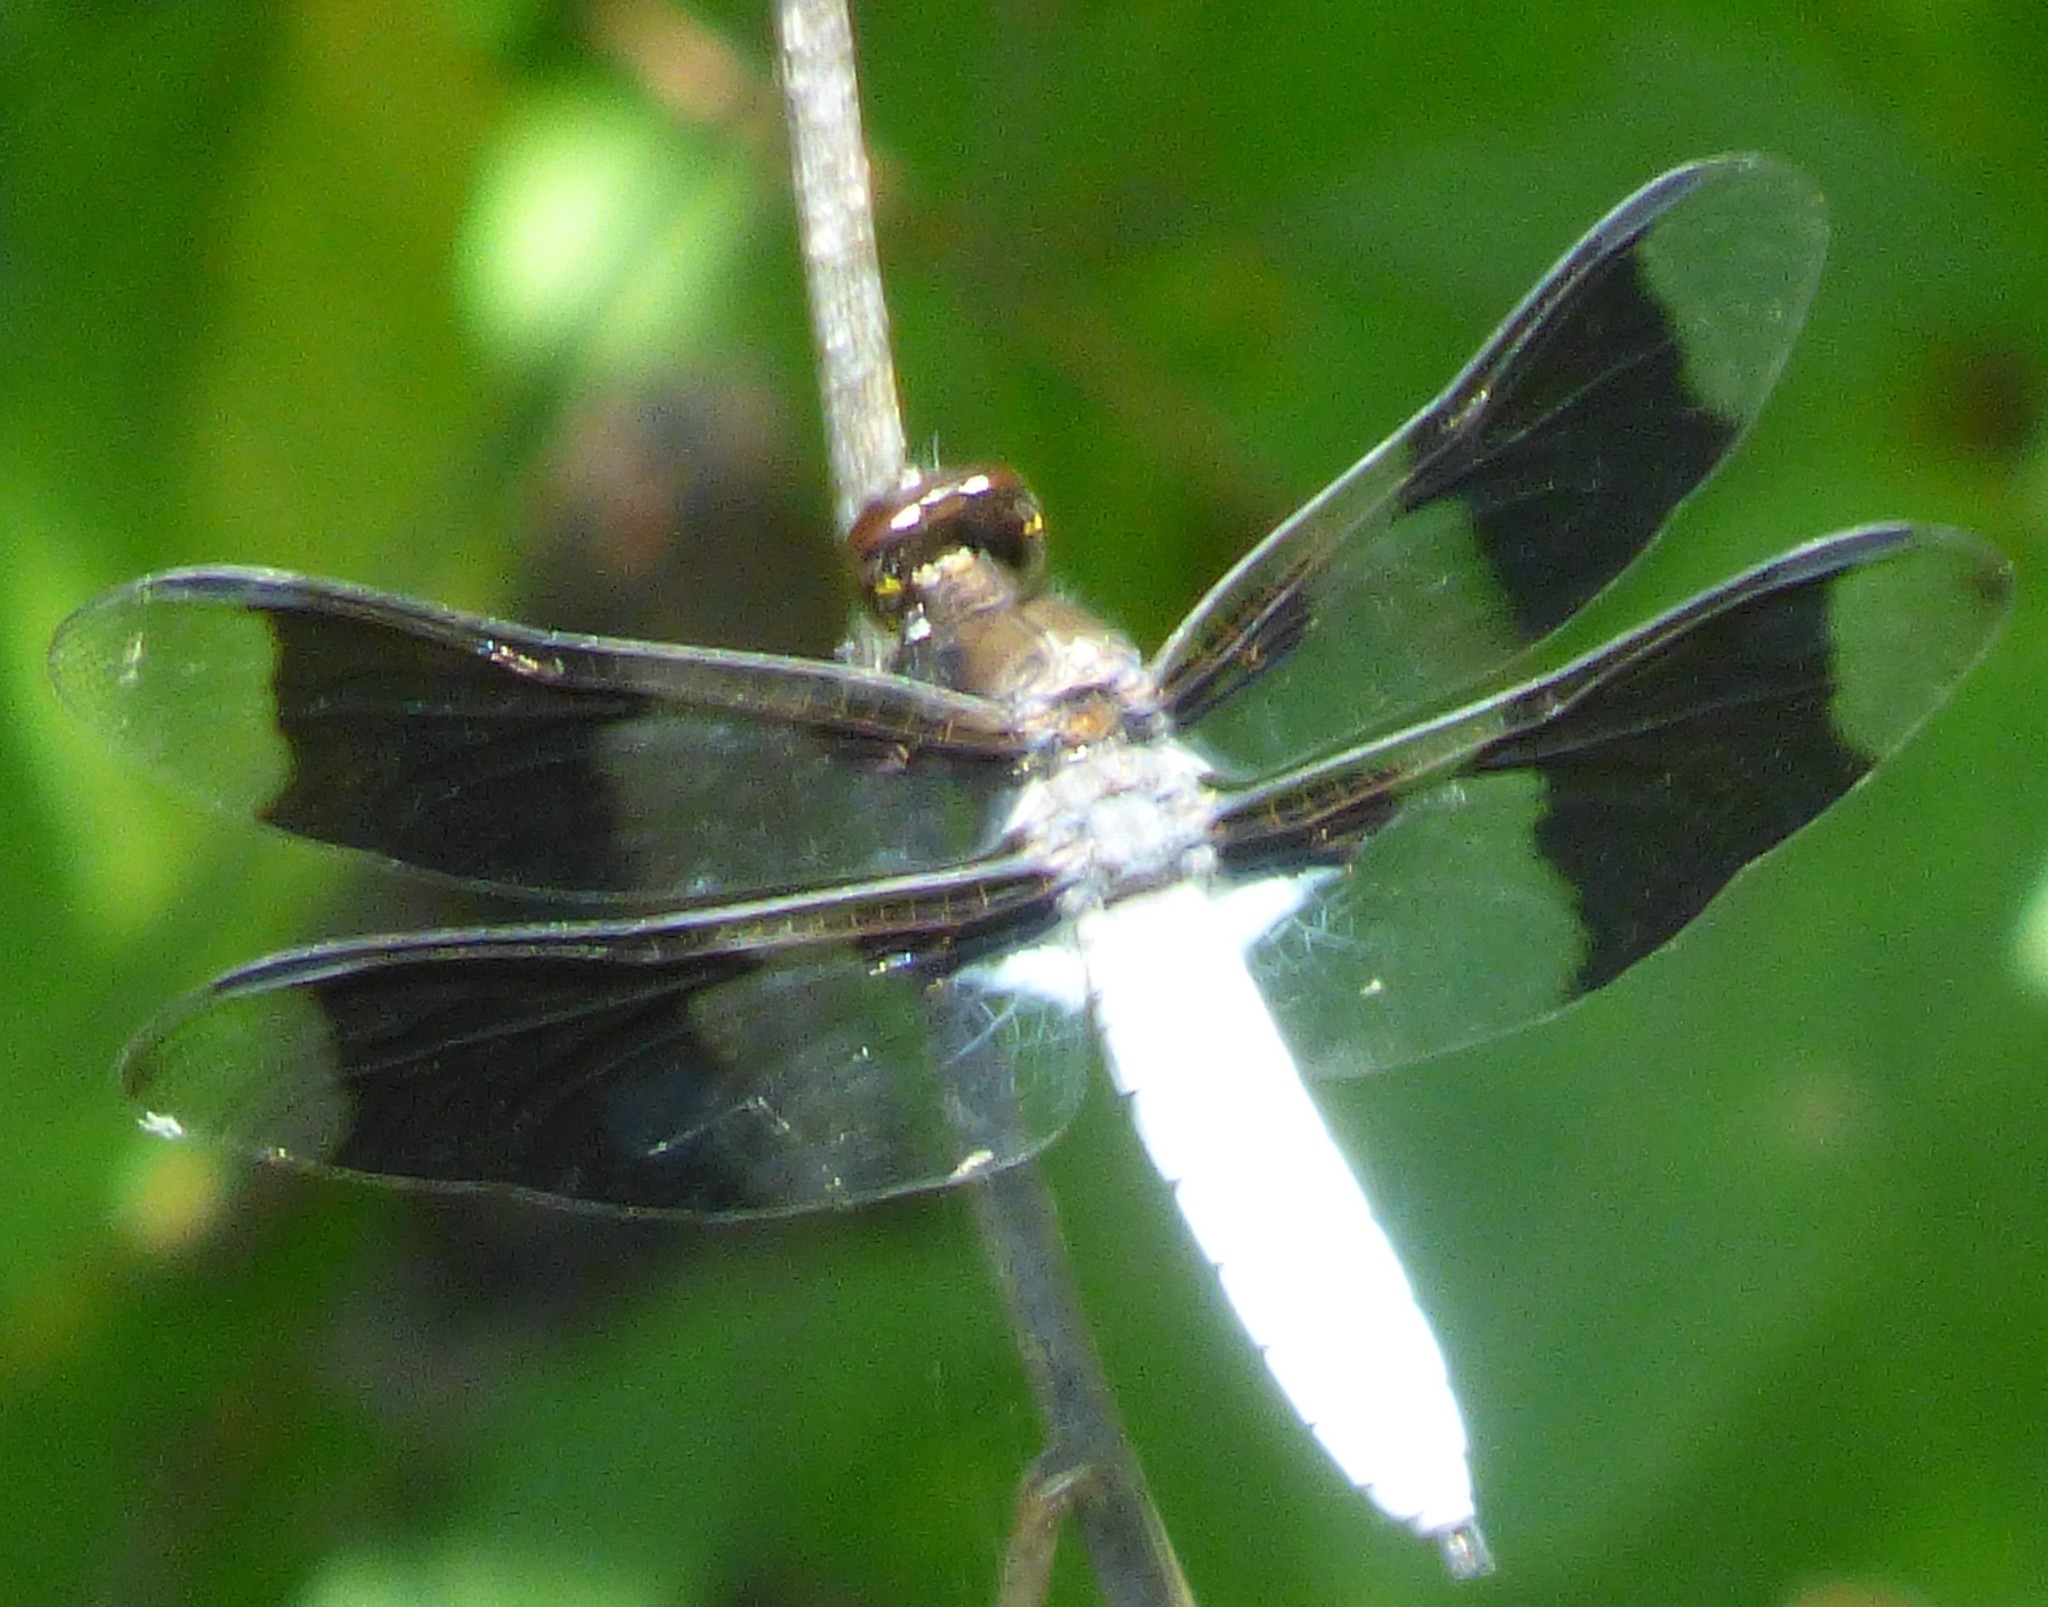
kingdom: Animalia
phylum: Arthropoda
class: Insecta
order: Odonata
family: Libellulidae
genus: Plathemis
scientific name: Plathemis lydia
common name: Common whitetail
